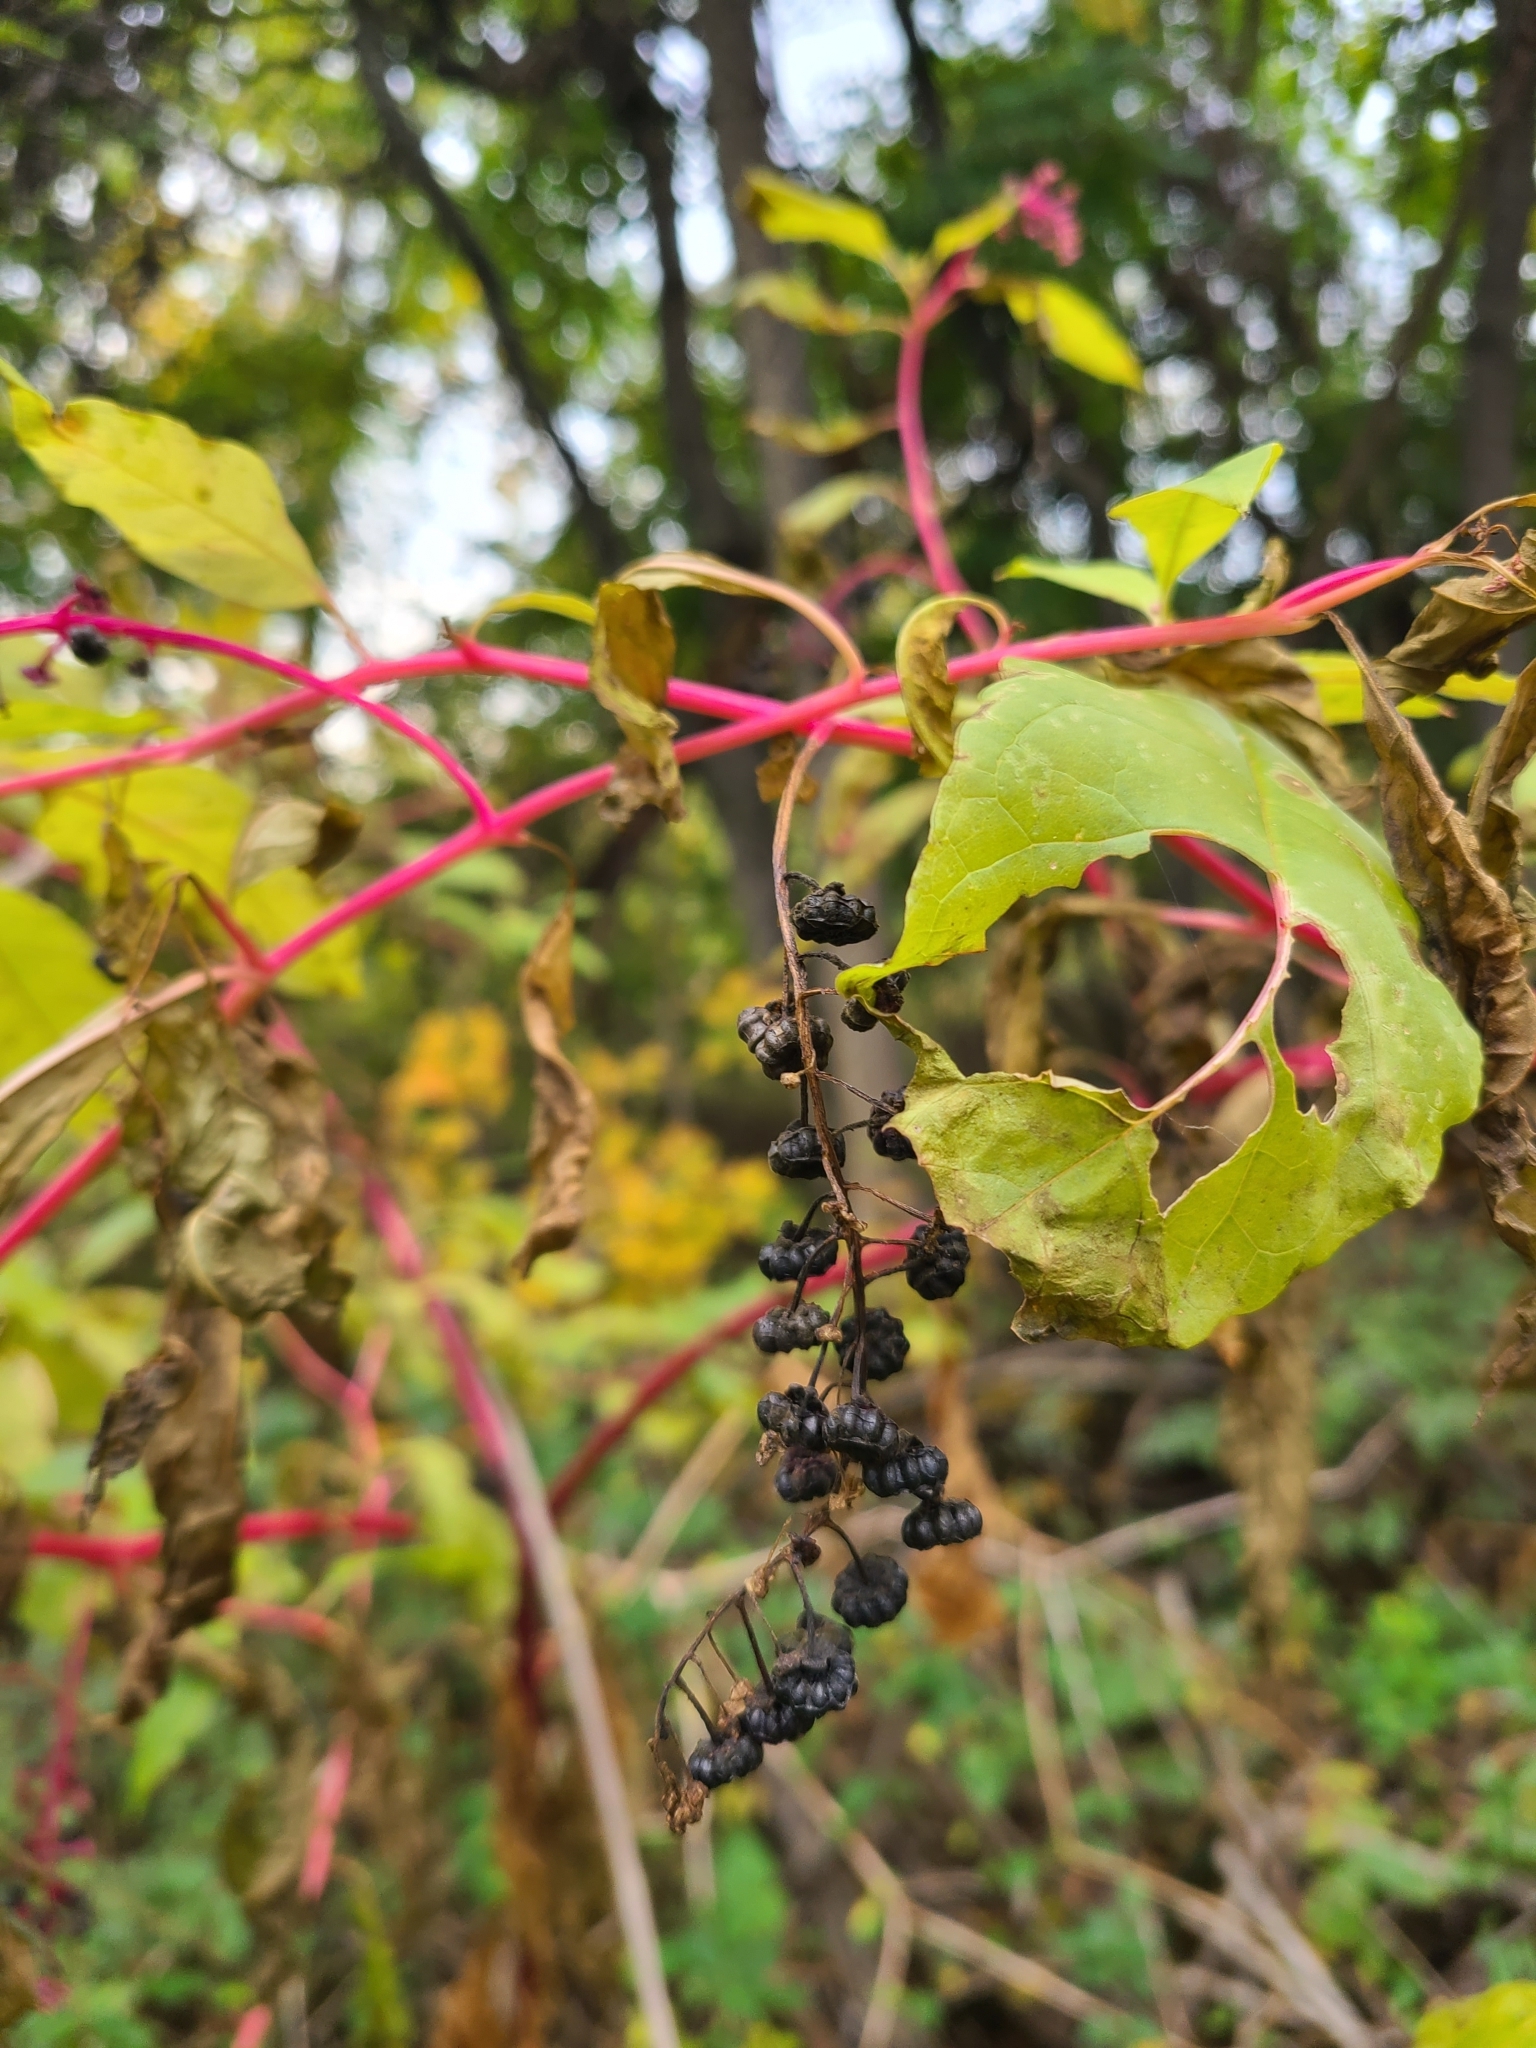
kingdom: Plantae
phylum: Tracheophyta
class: Magnoliopsida
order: Caryophyllales
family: Phytolaccaceae
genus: Phytolacca
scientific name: Phytolacca americana
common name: American pokeweed
